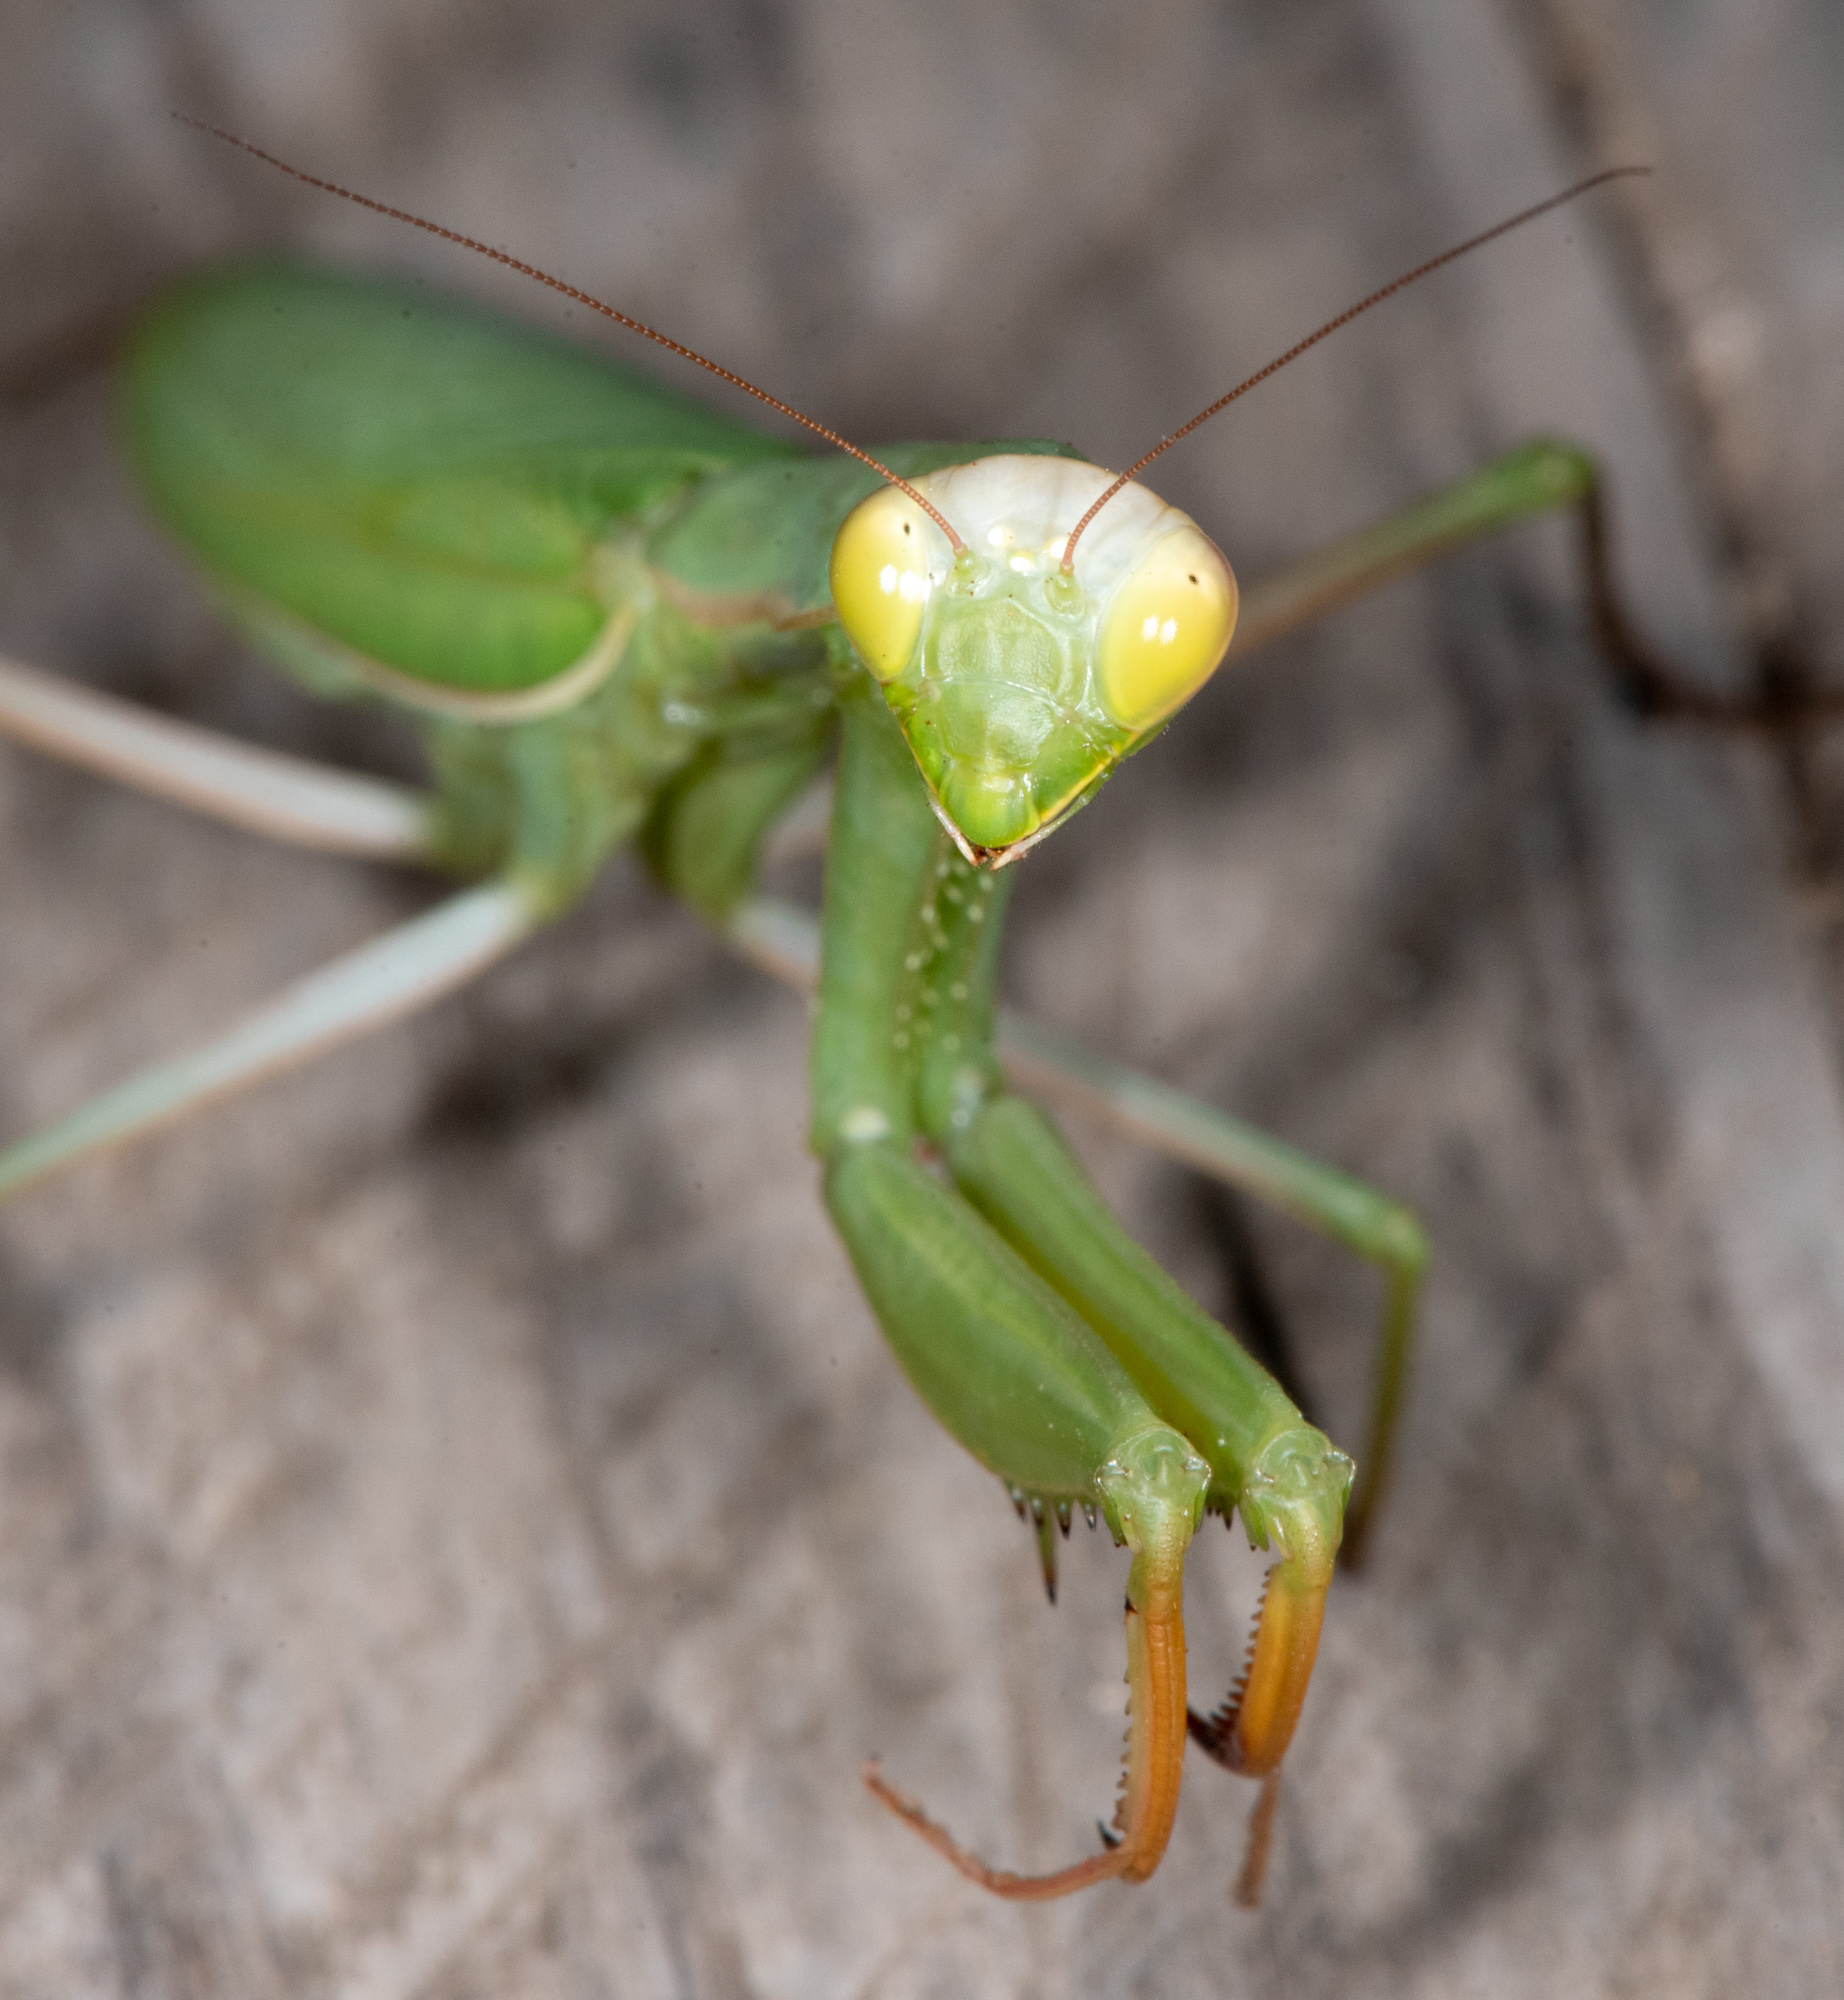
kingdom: Animalia
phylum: Arthropoda
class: Insecta
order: Mantodea
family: Mantidae
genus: Mantis
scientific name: Mantis religiosa
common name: Praying mantis
